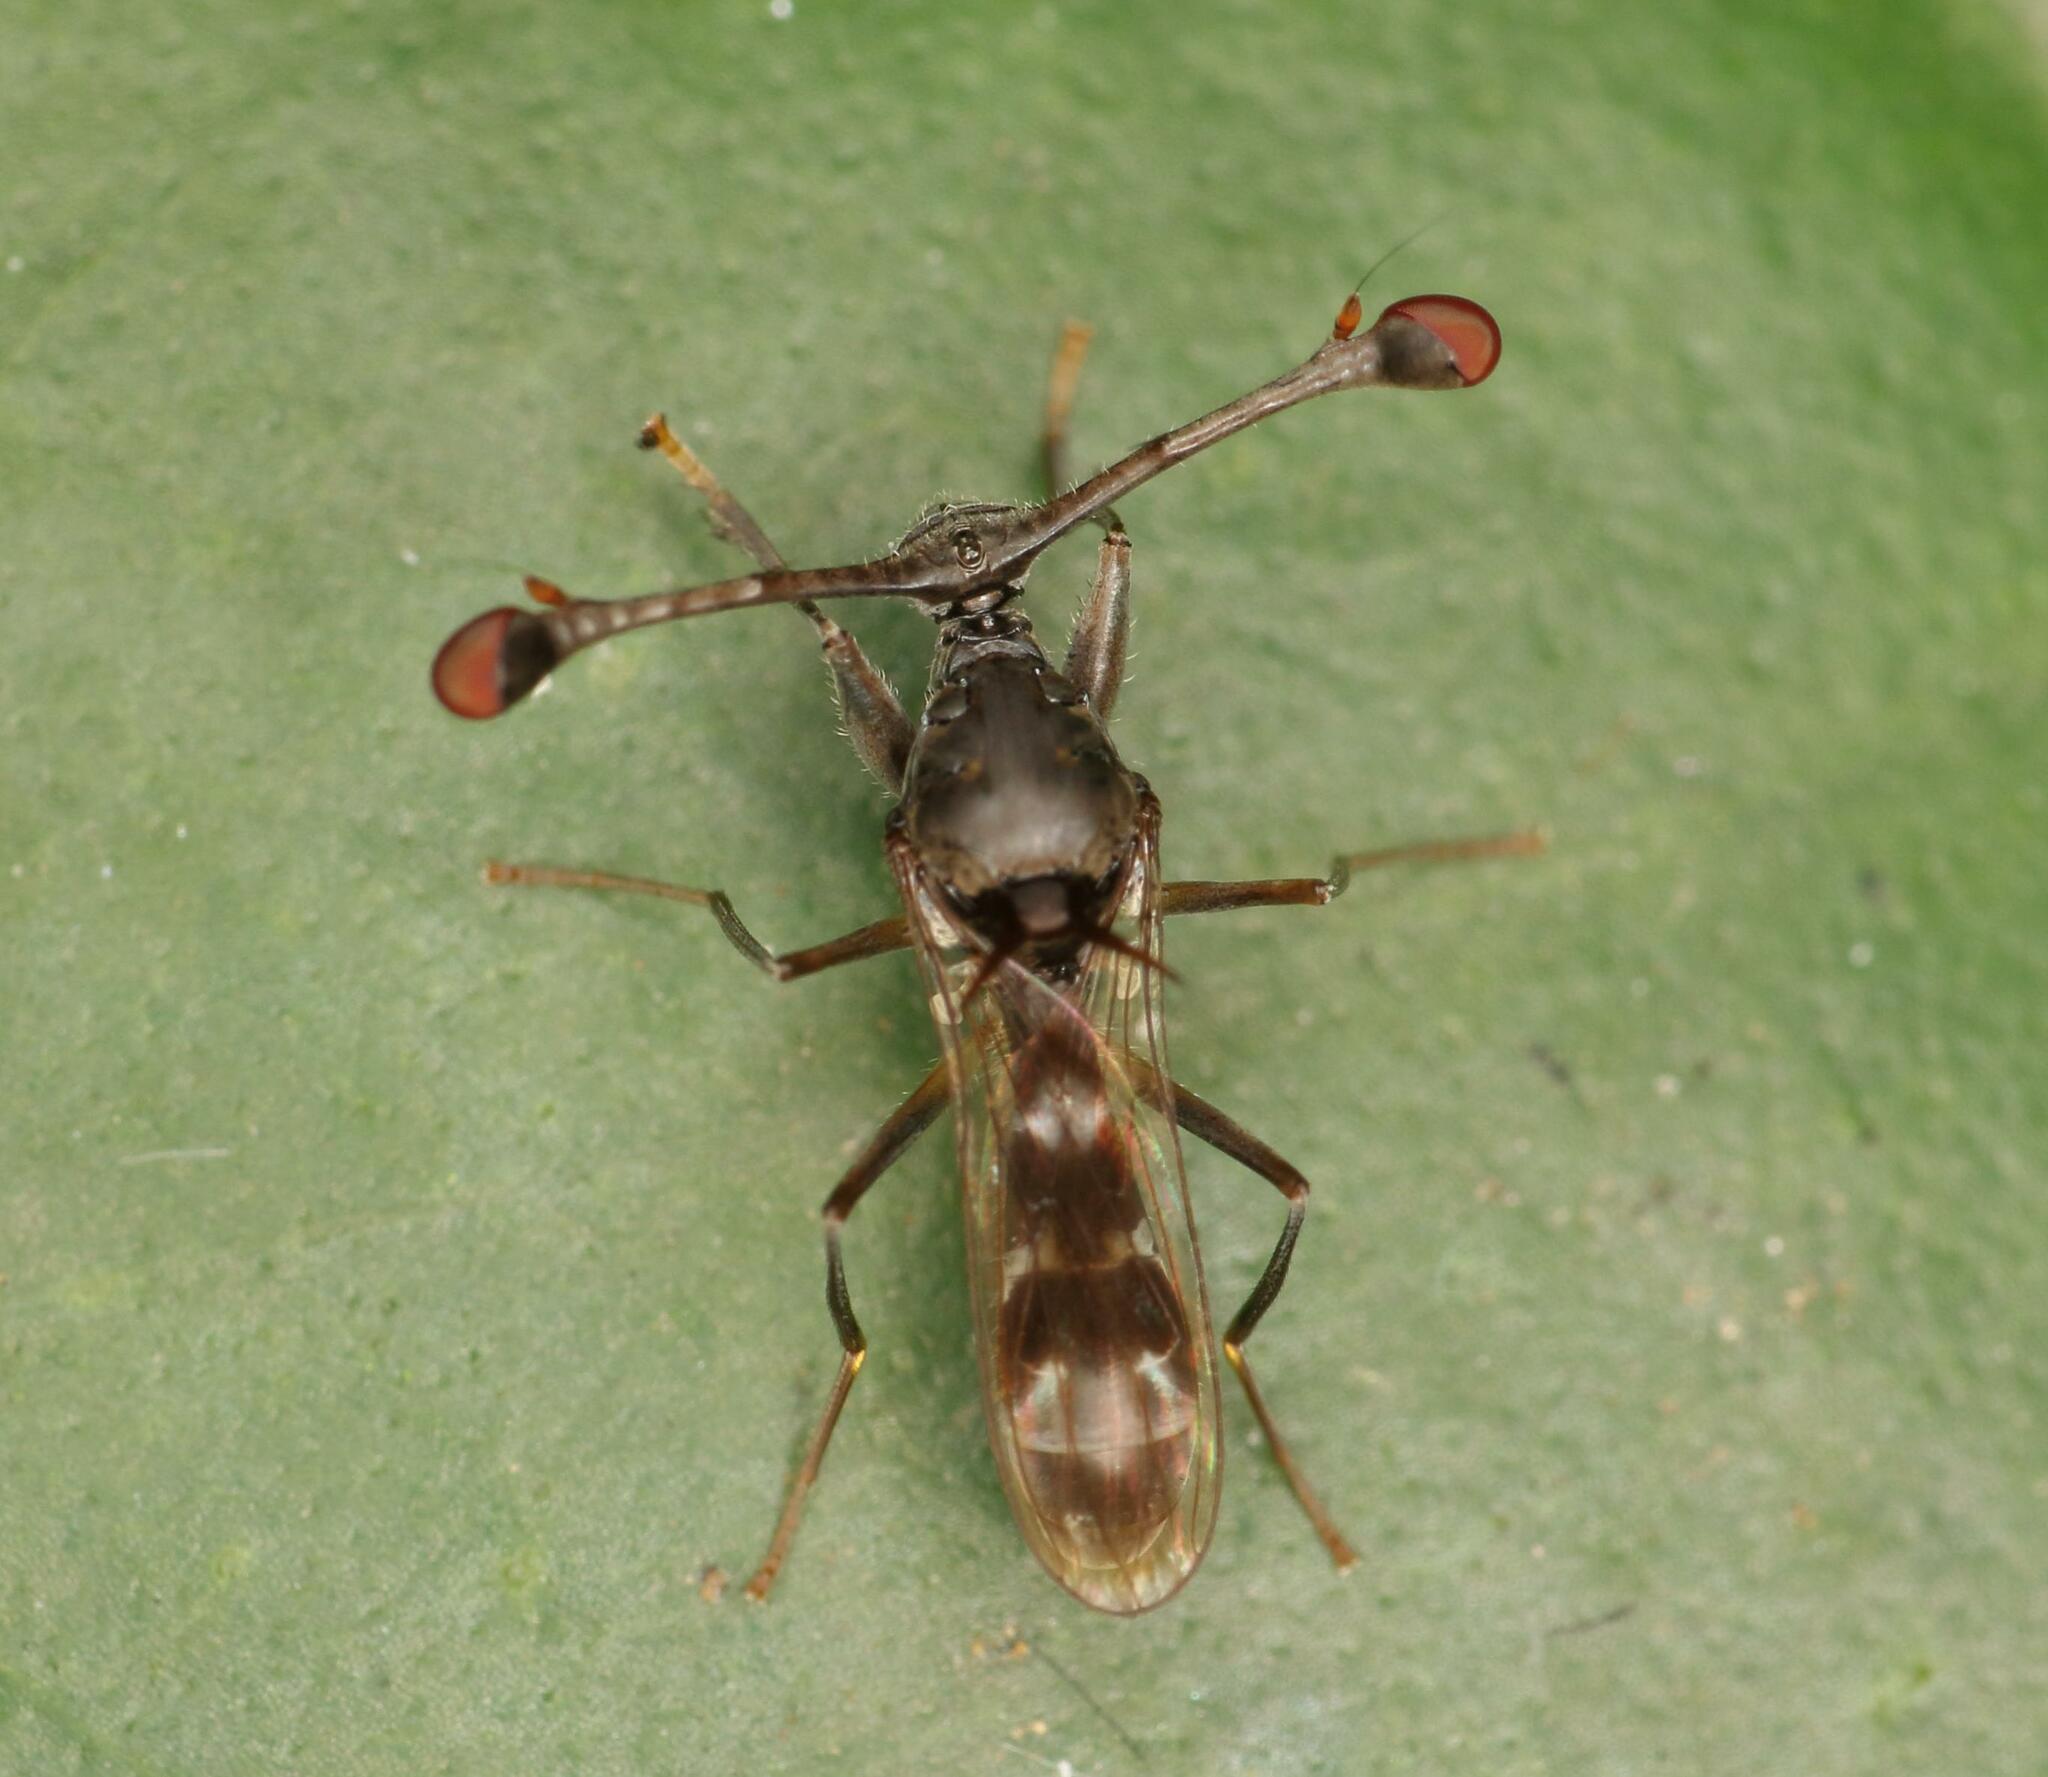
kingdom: Animalia
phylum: Arthropoda
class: Insecta
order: Diptera
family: Diopsidae
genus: Diasemopsis
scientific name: Diasemopsis obstans
